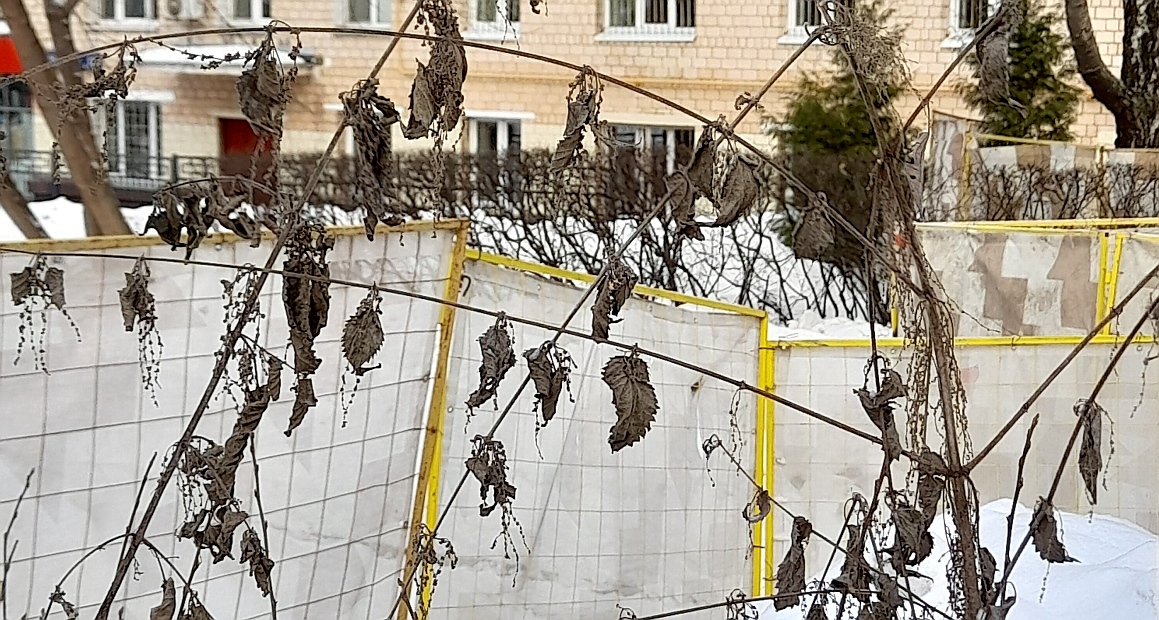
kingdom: Plantae
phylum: Tracheophyta
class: Magnoliopsida
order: Rosales
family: Urticaceae
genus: Urtica
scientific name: Urtica dioica
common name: Common nettle
